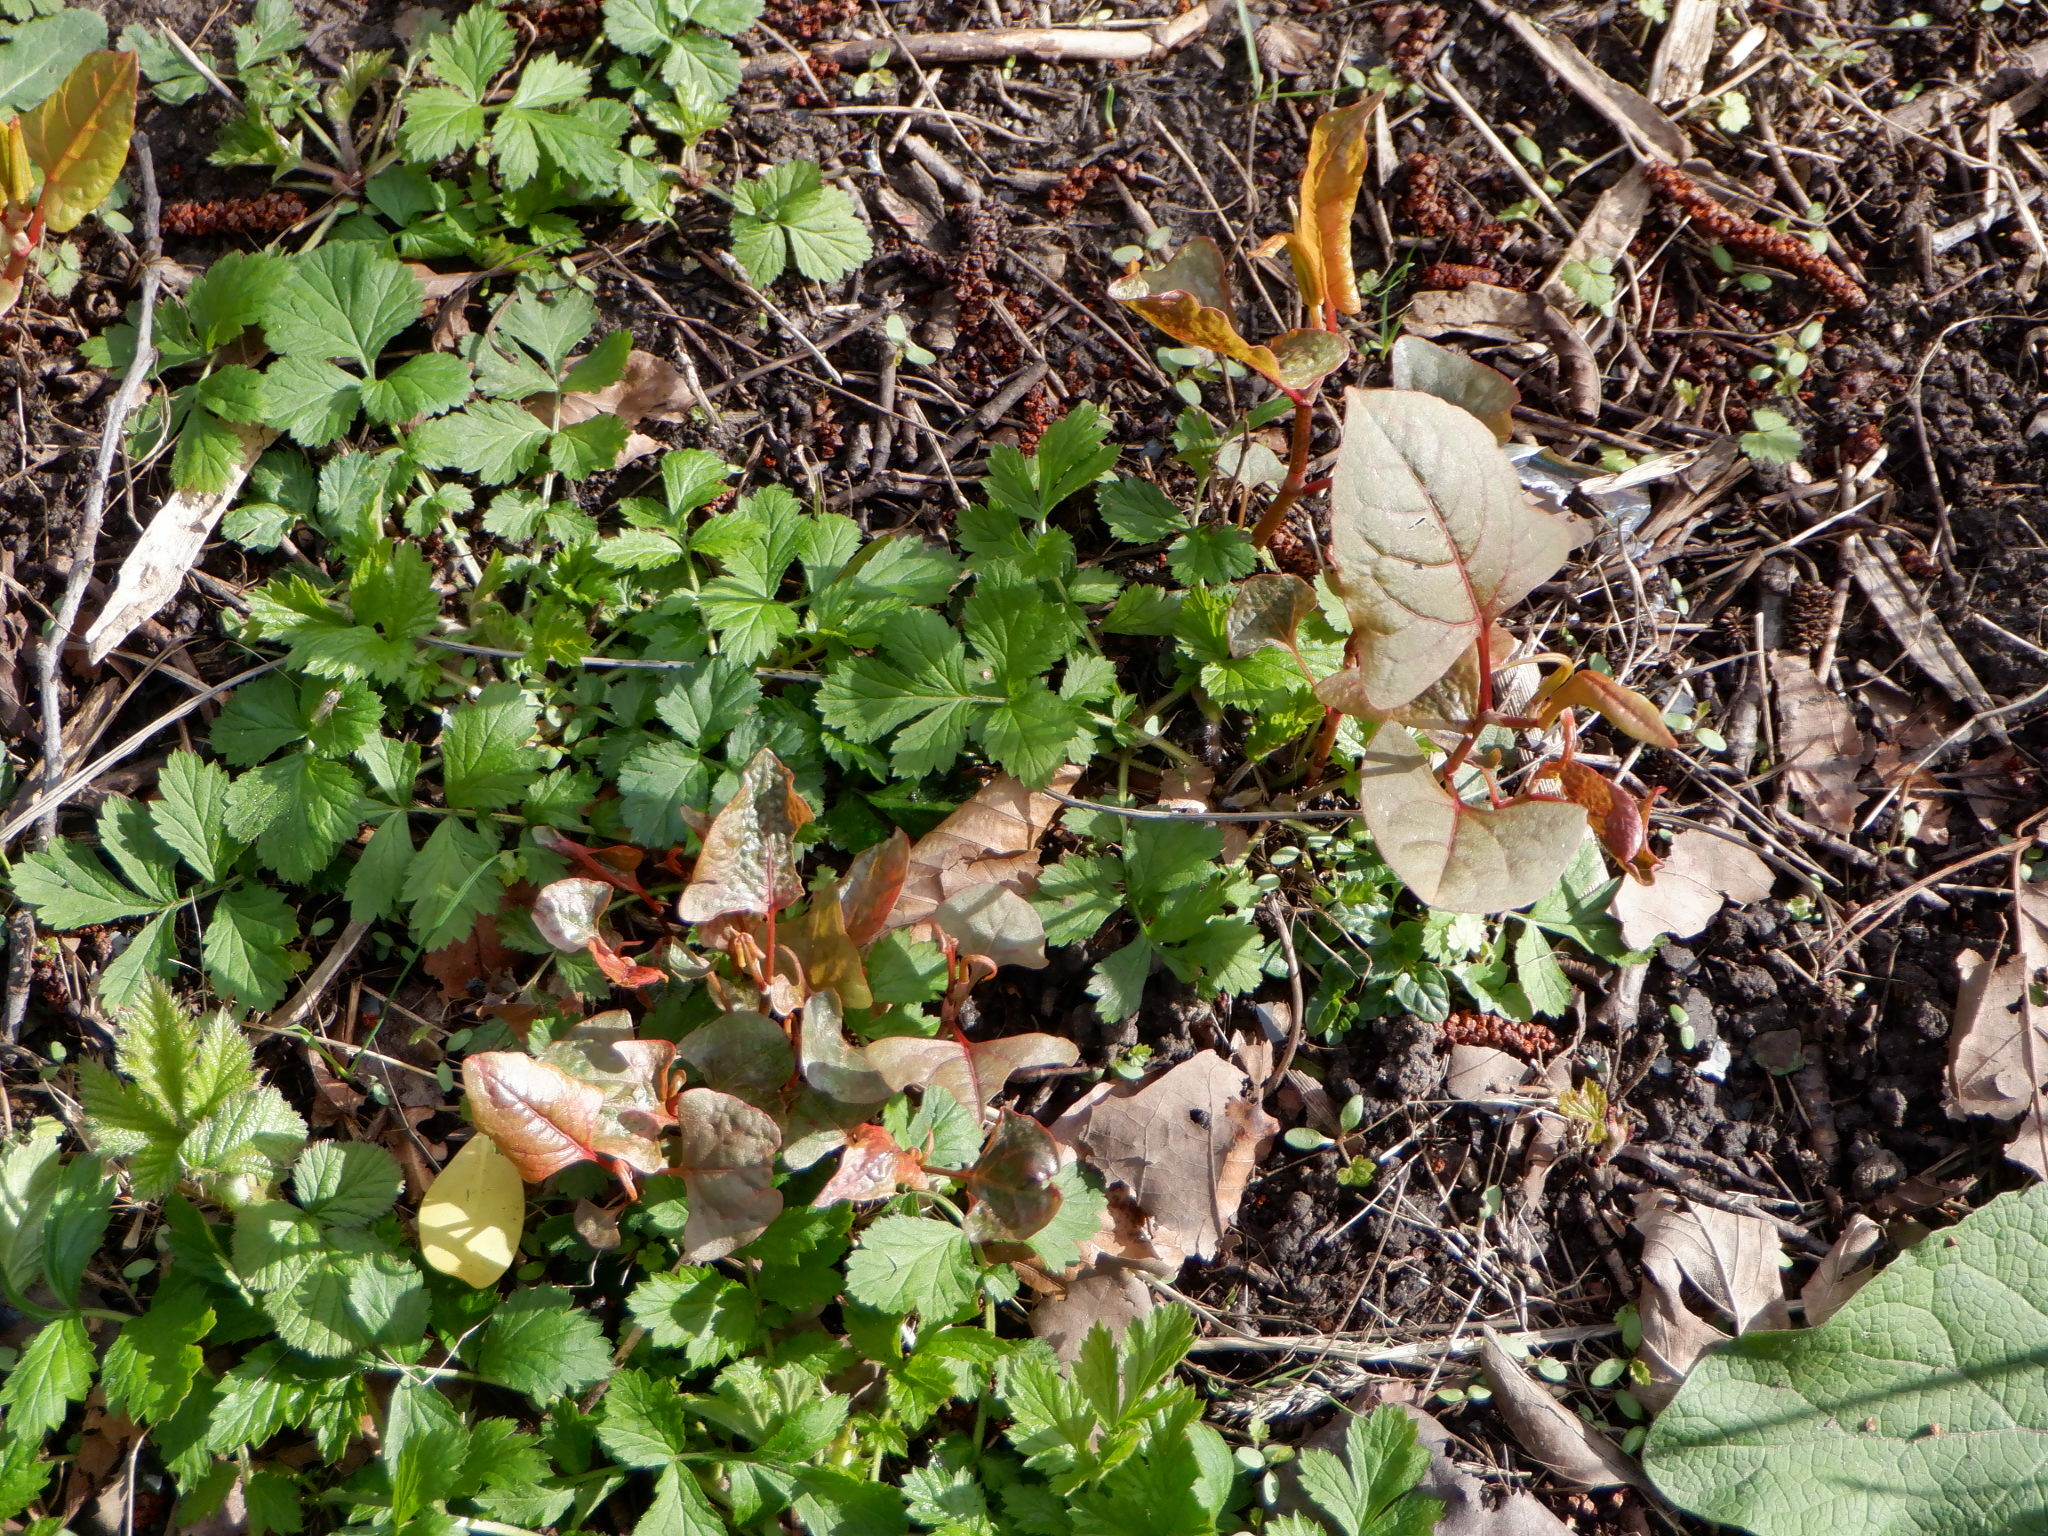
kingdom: Plantae
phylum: Tracheophyta
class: Magnoliopsida
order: Caryophyllales
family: Polygonaceae
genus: Reynoutria
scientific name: Reynoutria japonica
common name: Japanese knotweed
